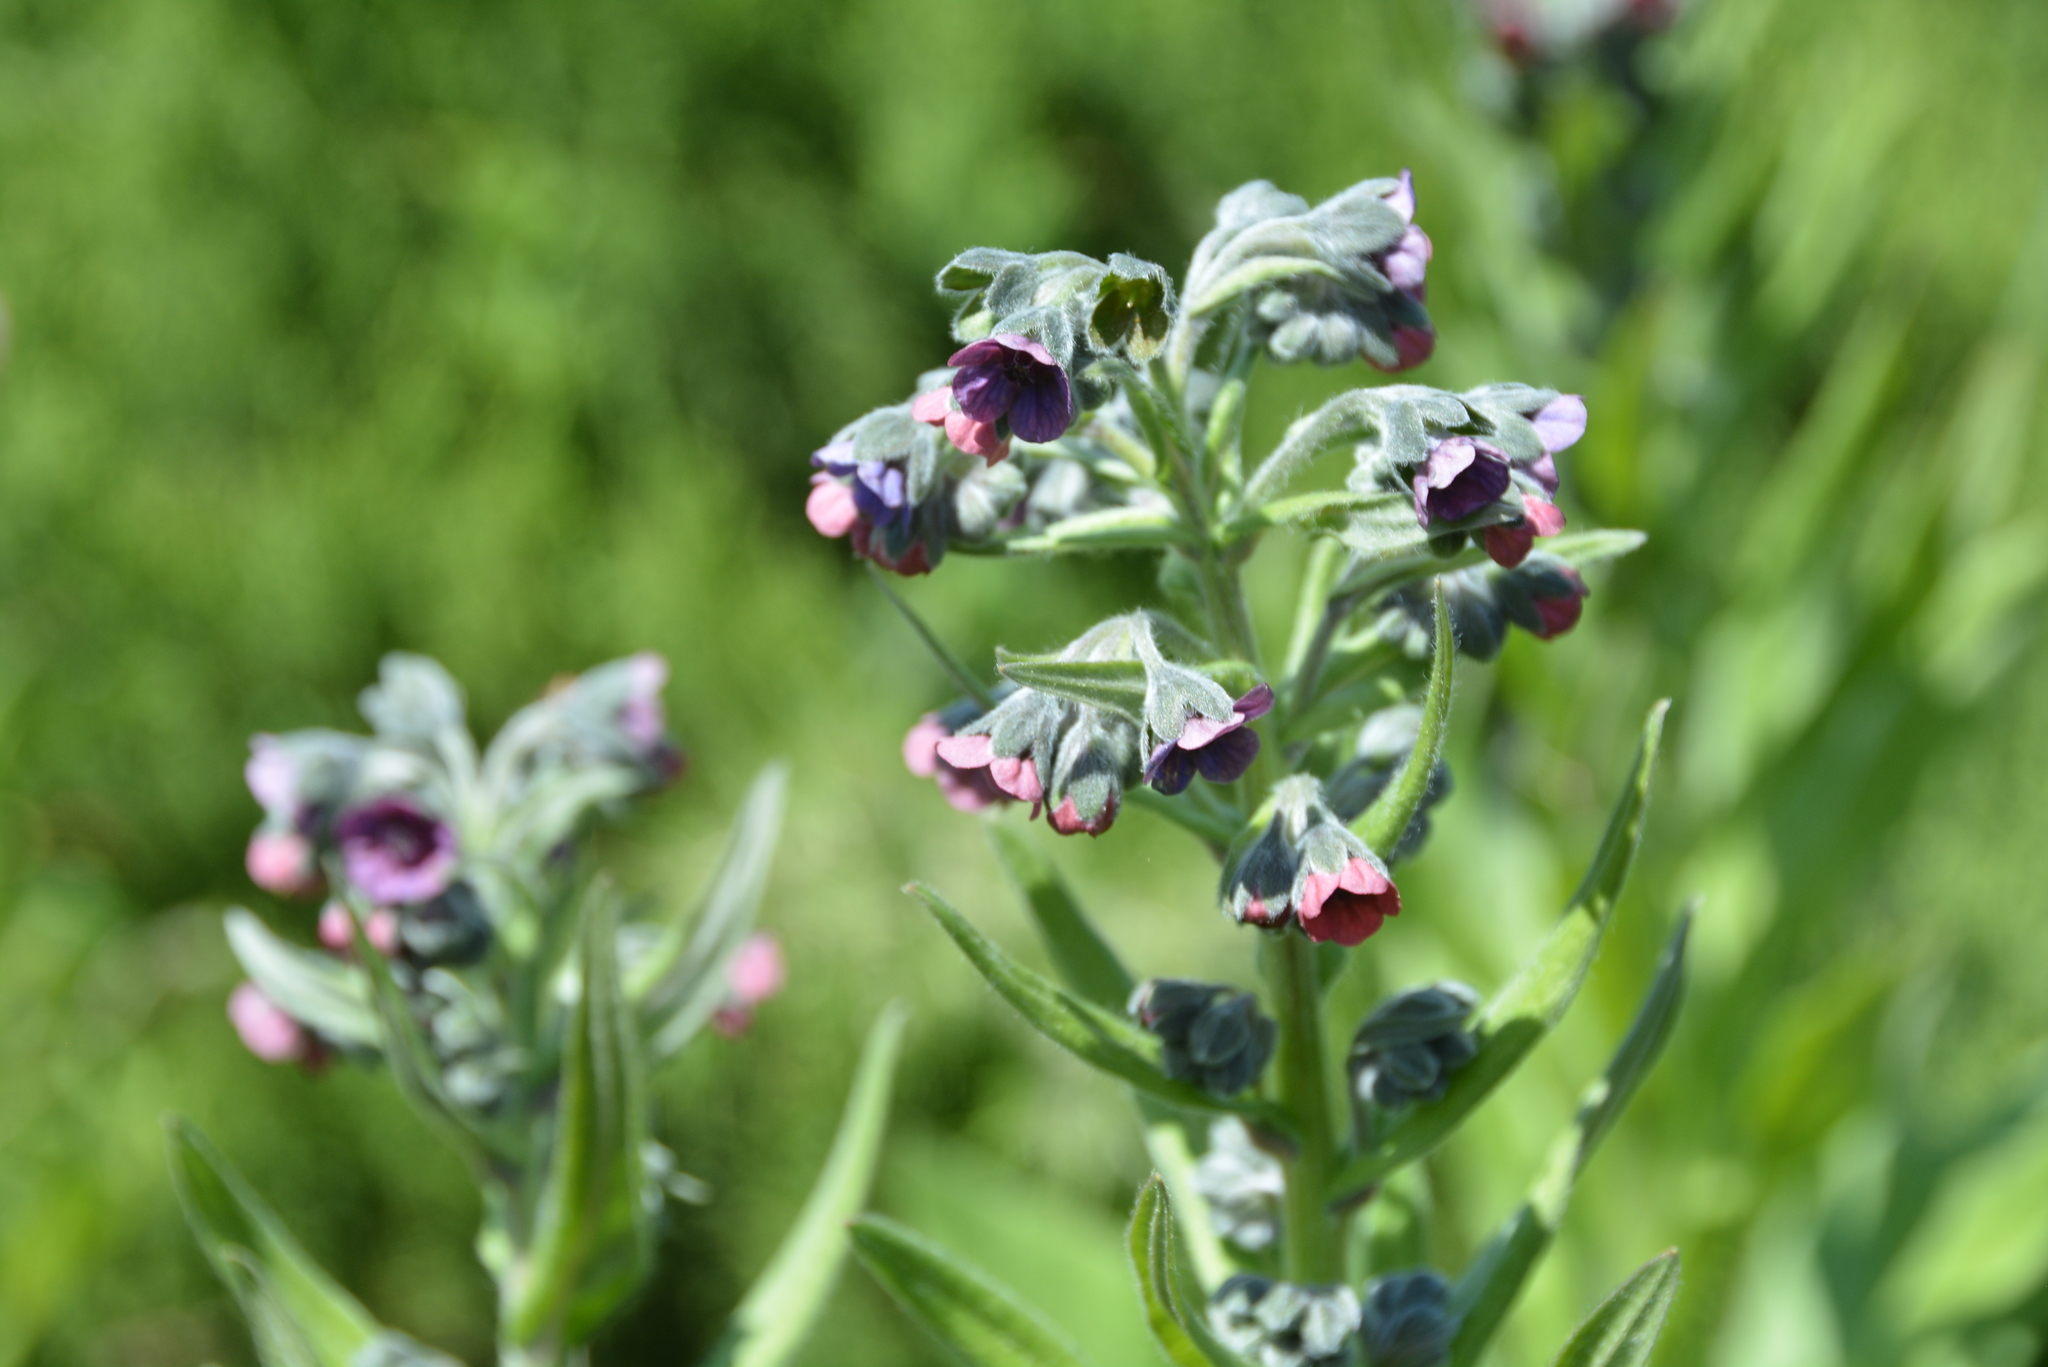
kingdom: Plantae
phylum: Tracheophyta
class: Magnoliopsida
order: Boraginales
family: Boraginaceae
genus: Cynoglossum
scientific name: Cynoglossum officinale
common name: Hound's-tongue
